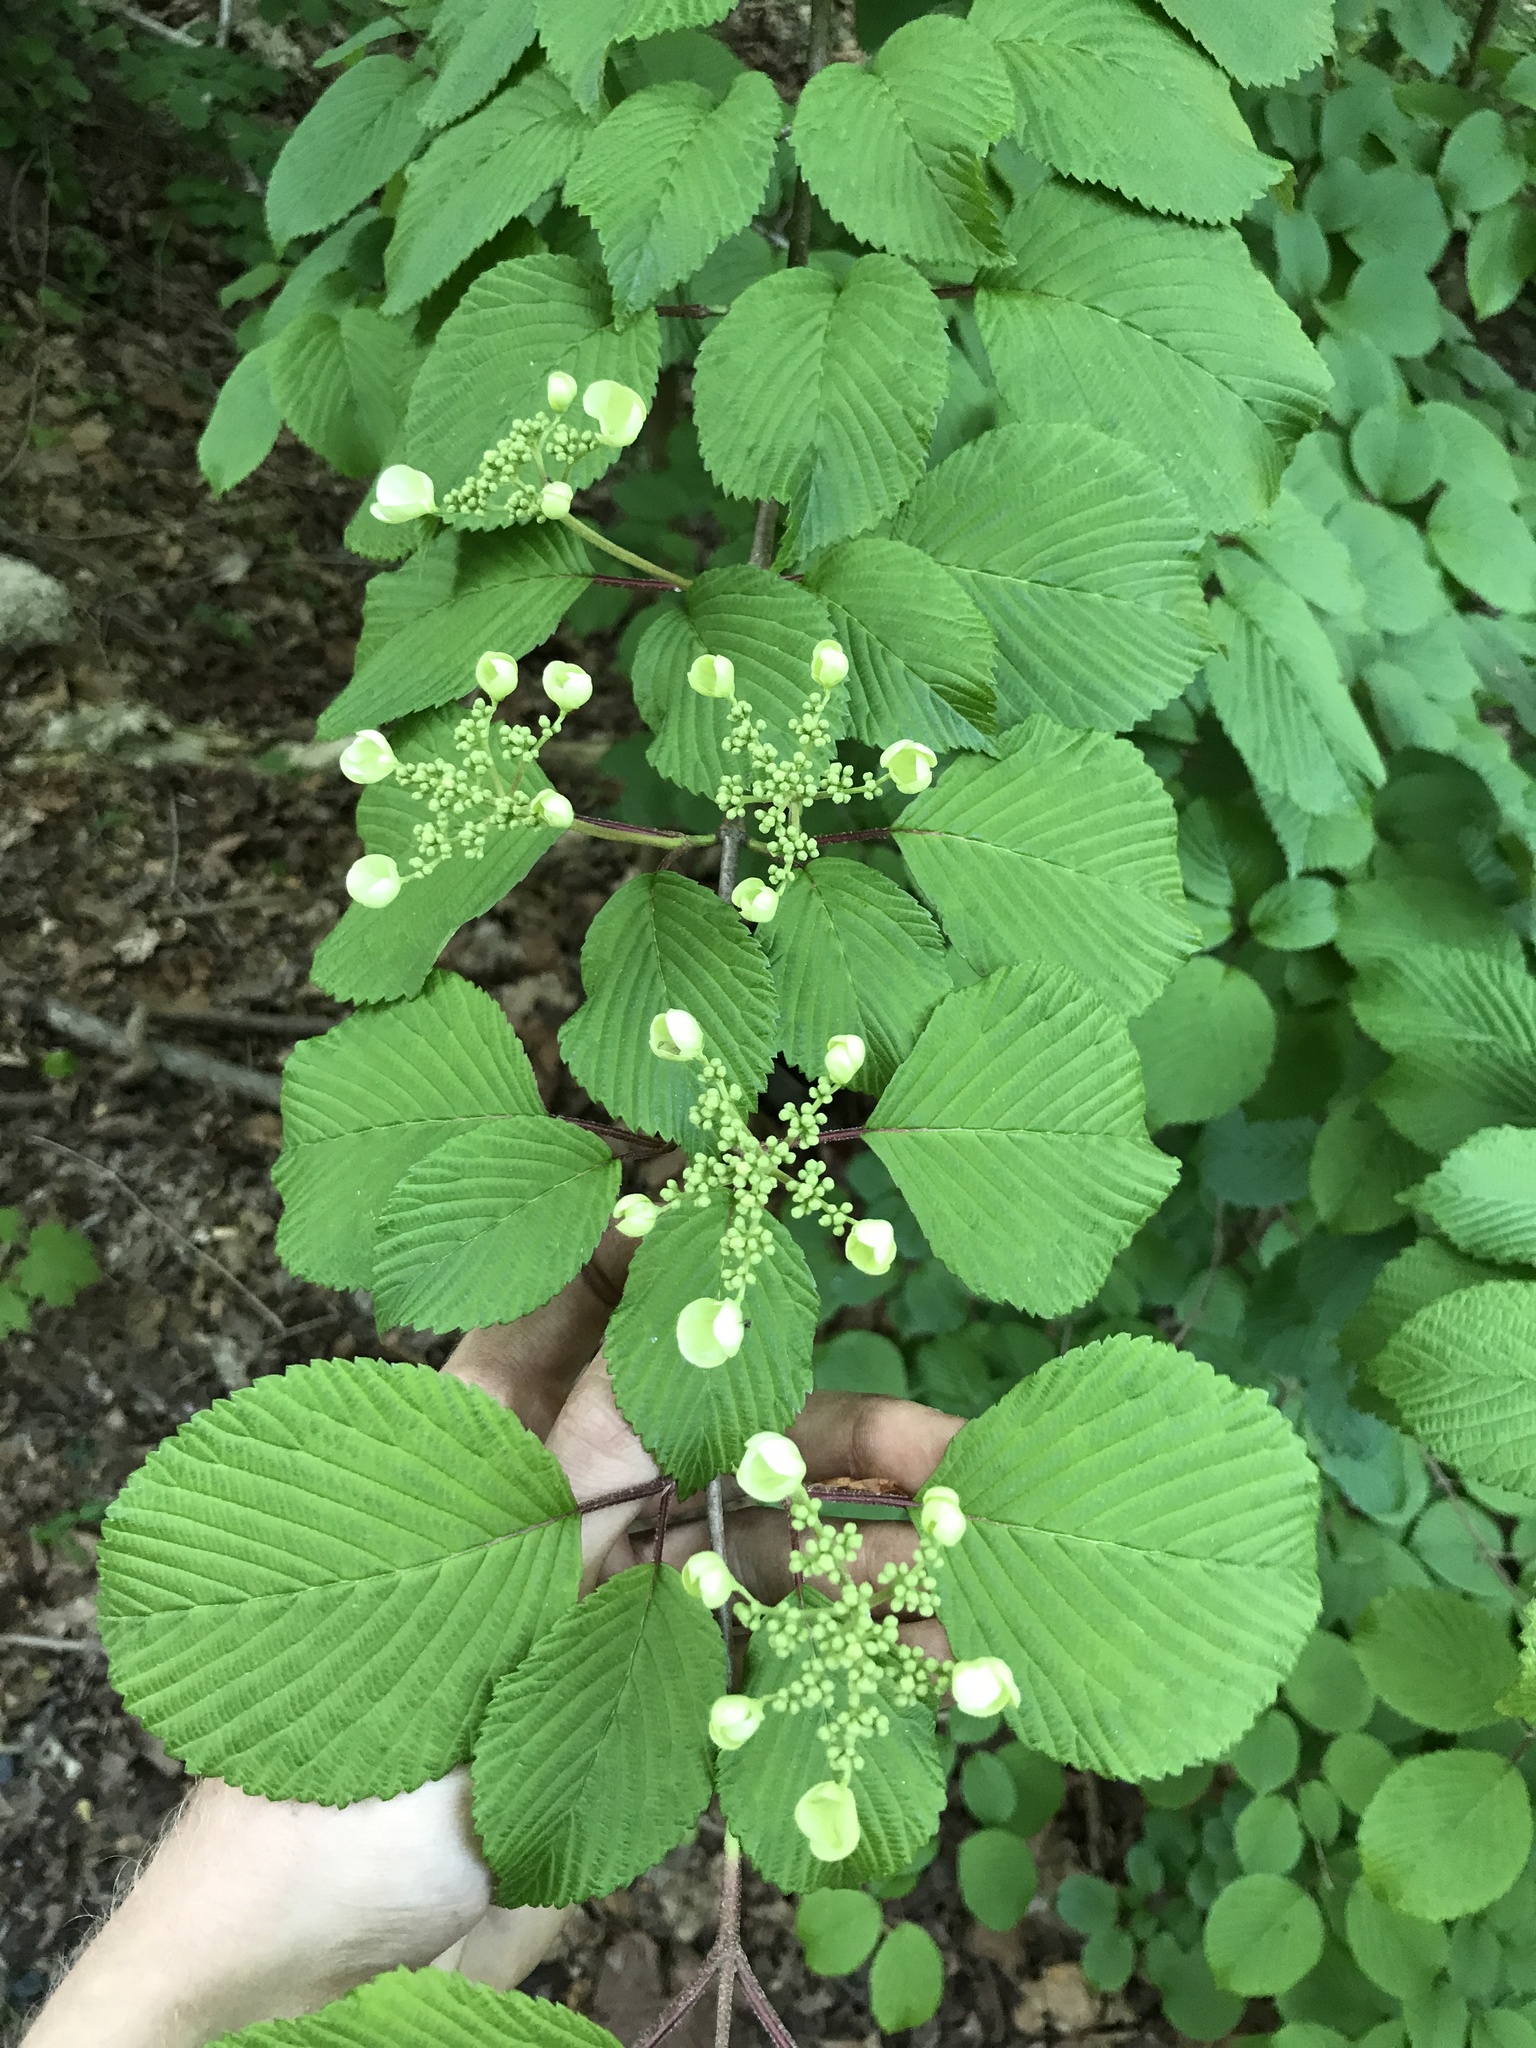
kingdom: Plantae
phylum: Tracheophyta
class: Magnoliopsida
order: Dipsacales
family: Viburnaceae
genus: Viburnum
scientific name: Viburnum plicatum
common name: Japanese snowball
